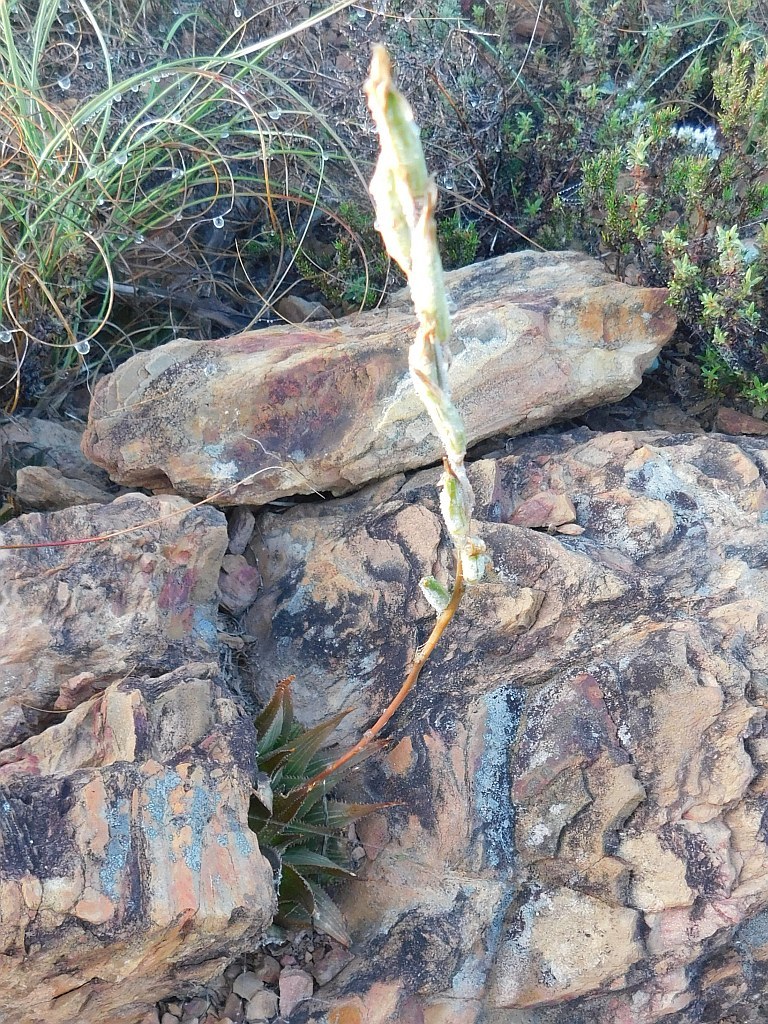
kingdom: Plantae
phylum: Tracheophyta
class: Liliopsida
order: Asparagales
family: Asphodelaceae
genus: Haworthia
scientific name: Haworthia mirabilis
